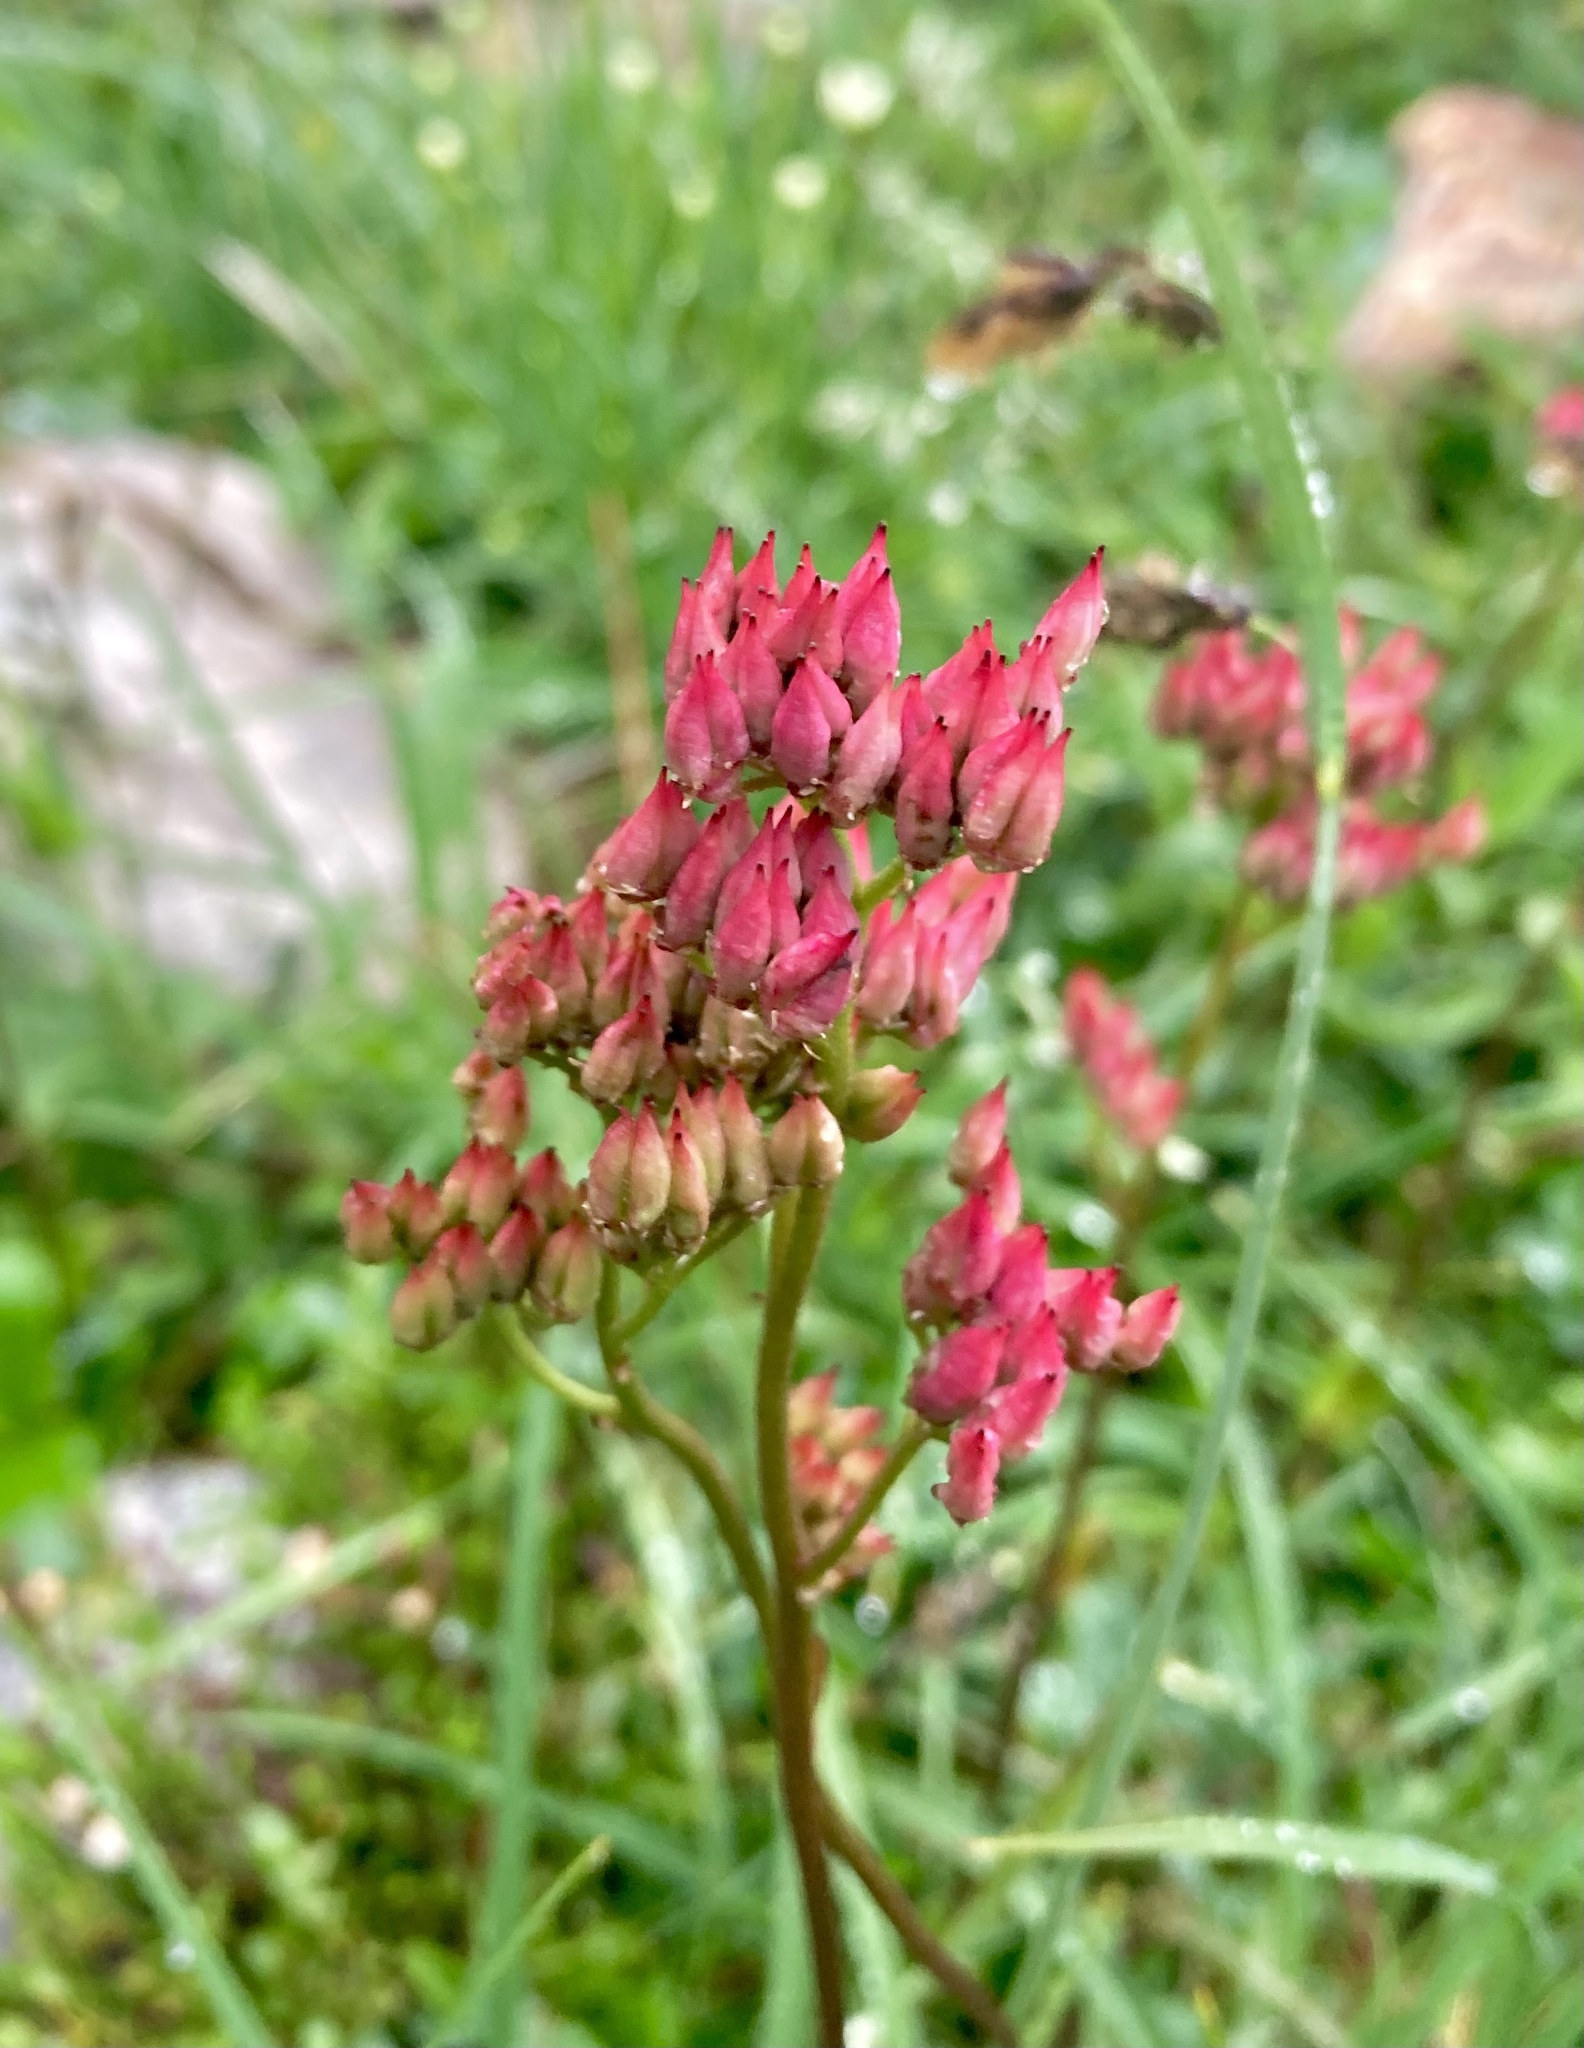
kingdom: Plantae
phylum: Tracheophyta
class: Magnoliopsida
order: Saxifragales
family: Saxifragaceae
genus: Leptarrhena
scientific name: Leptarrhena pyrolifolia
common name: Leatherleaf-saxifrage
